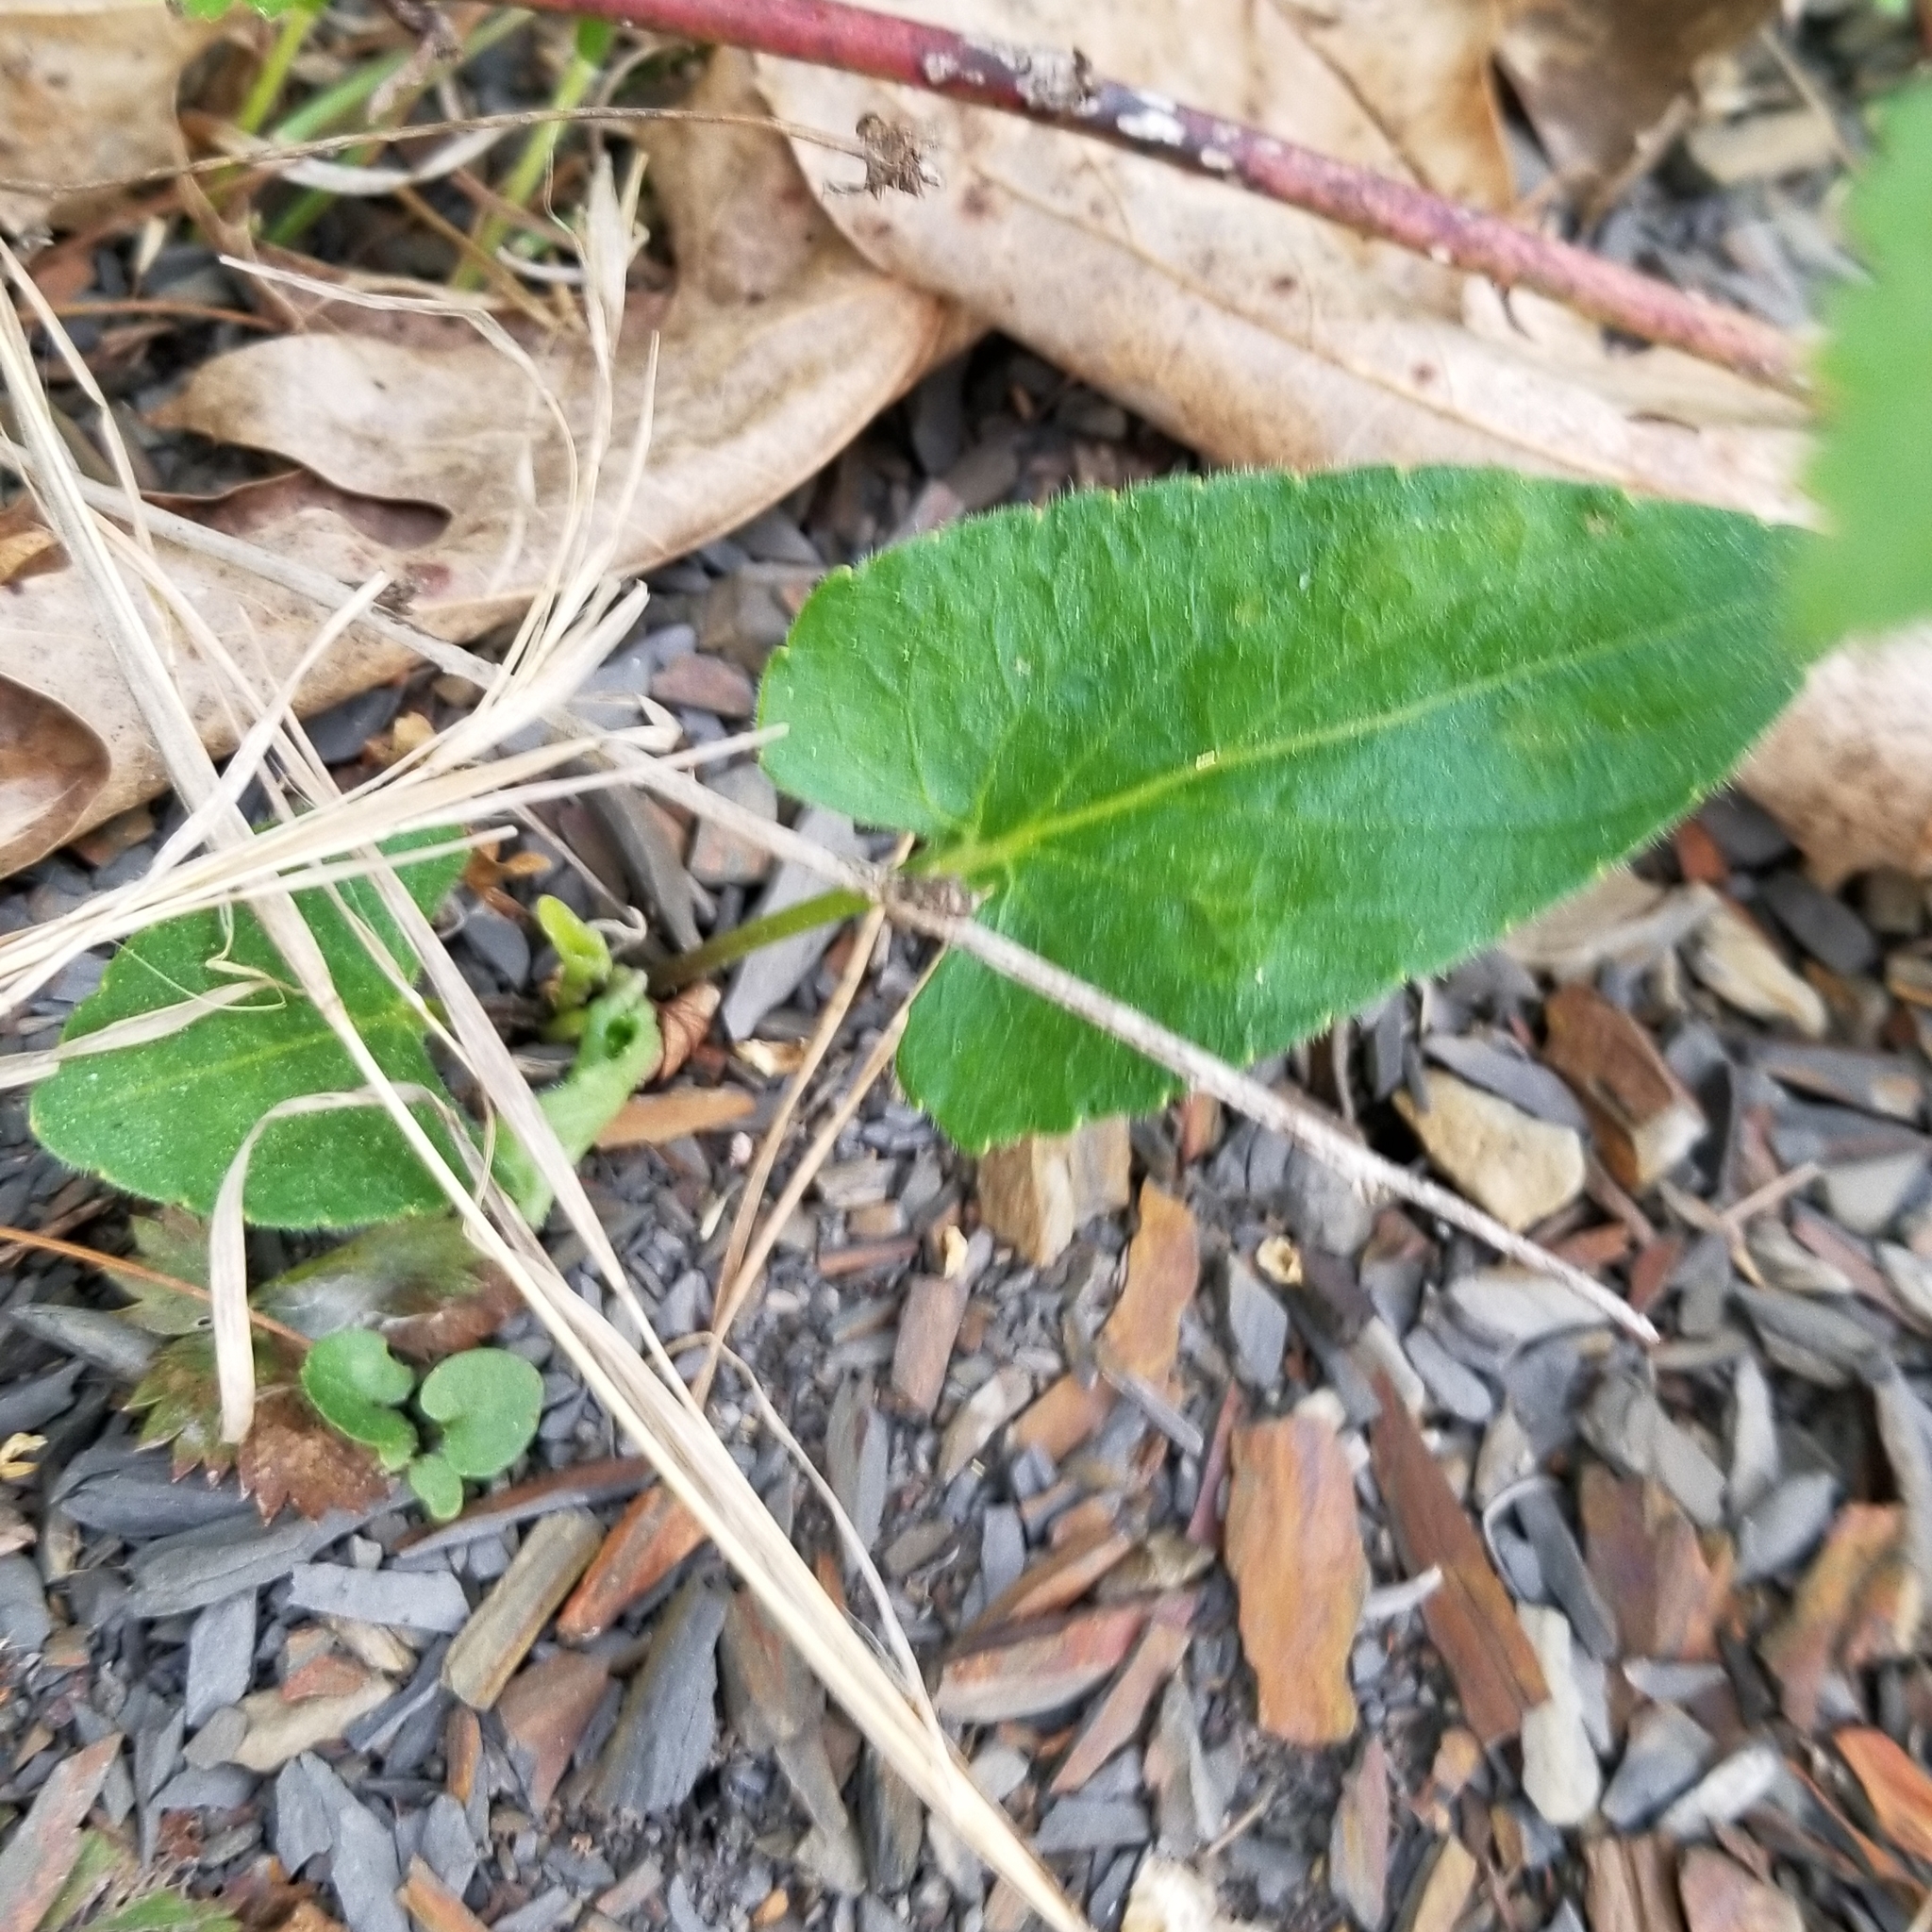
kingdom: Plantae
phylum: Tracheophyta
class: Magnoliopsida
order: Malpighiales
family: Violaceae
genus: Viola
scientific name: Viola fimbriatula
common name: Sand violet
